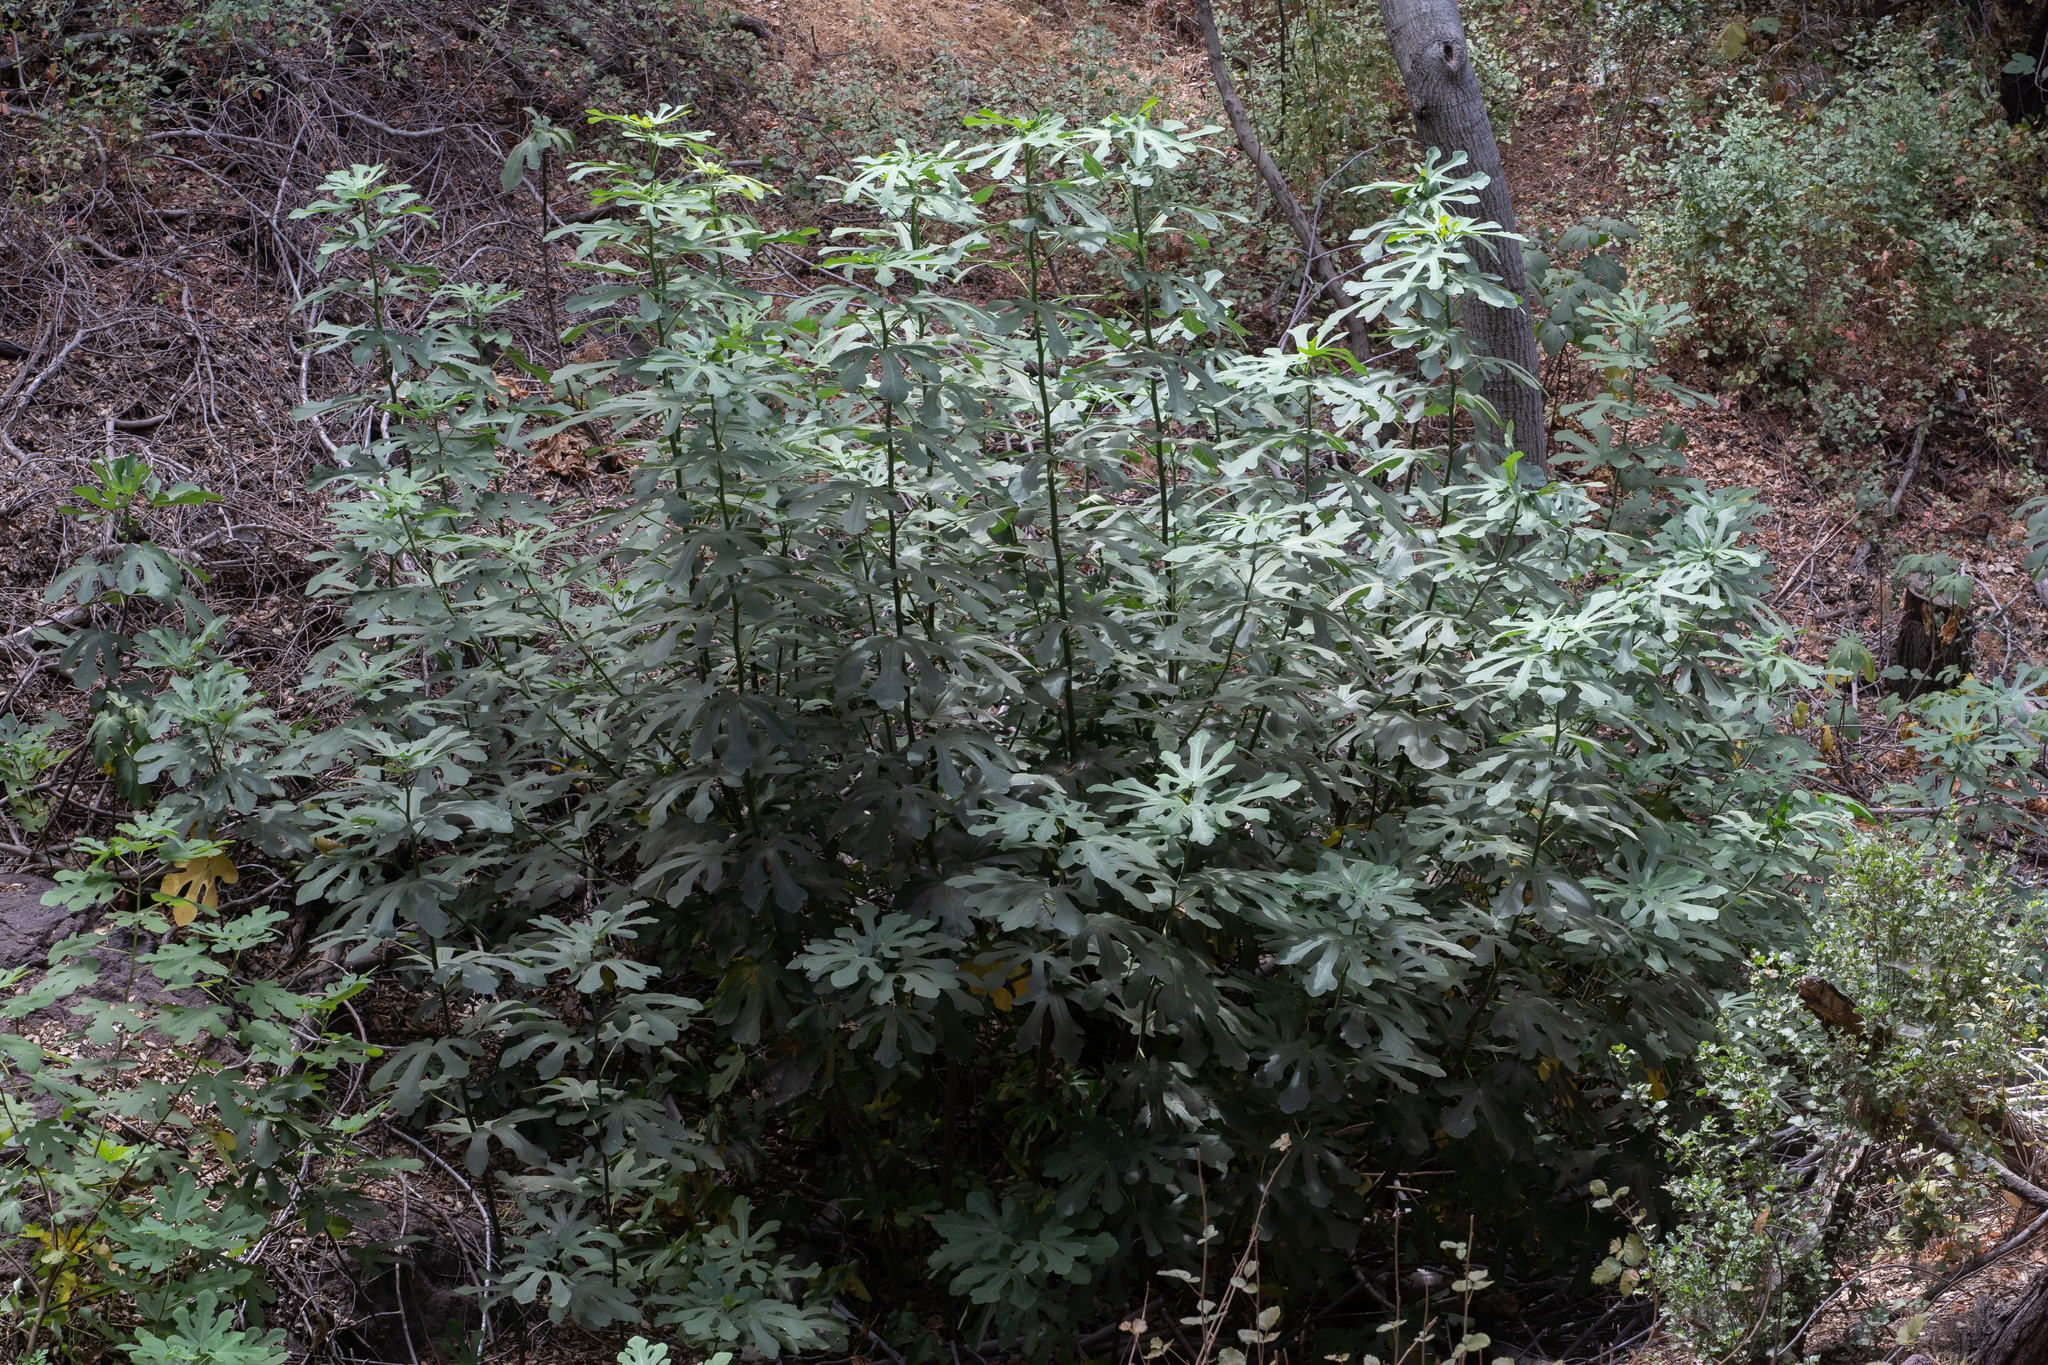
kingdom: Plantae
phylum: Tracheophyta
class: Magnoliopsida
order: Rosales
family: Moraceae
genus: Ficus
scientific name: Ficus carica
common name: Fig
